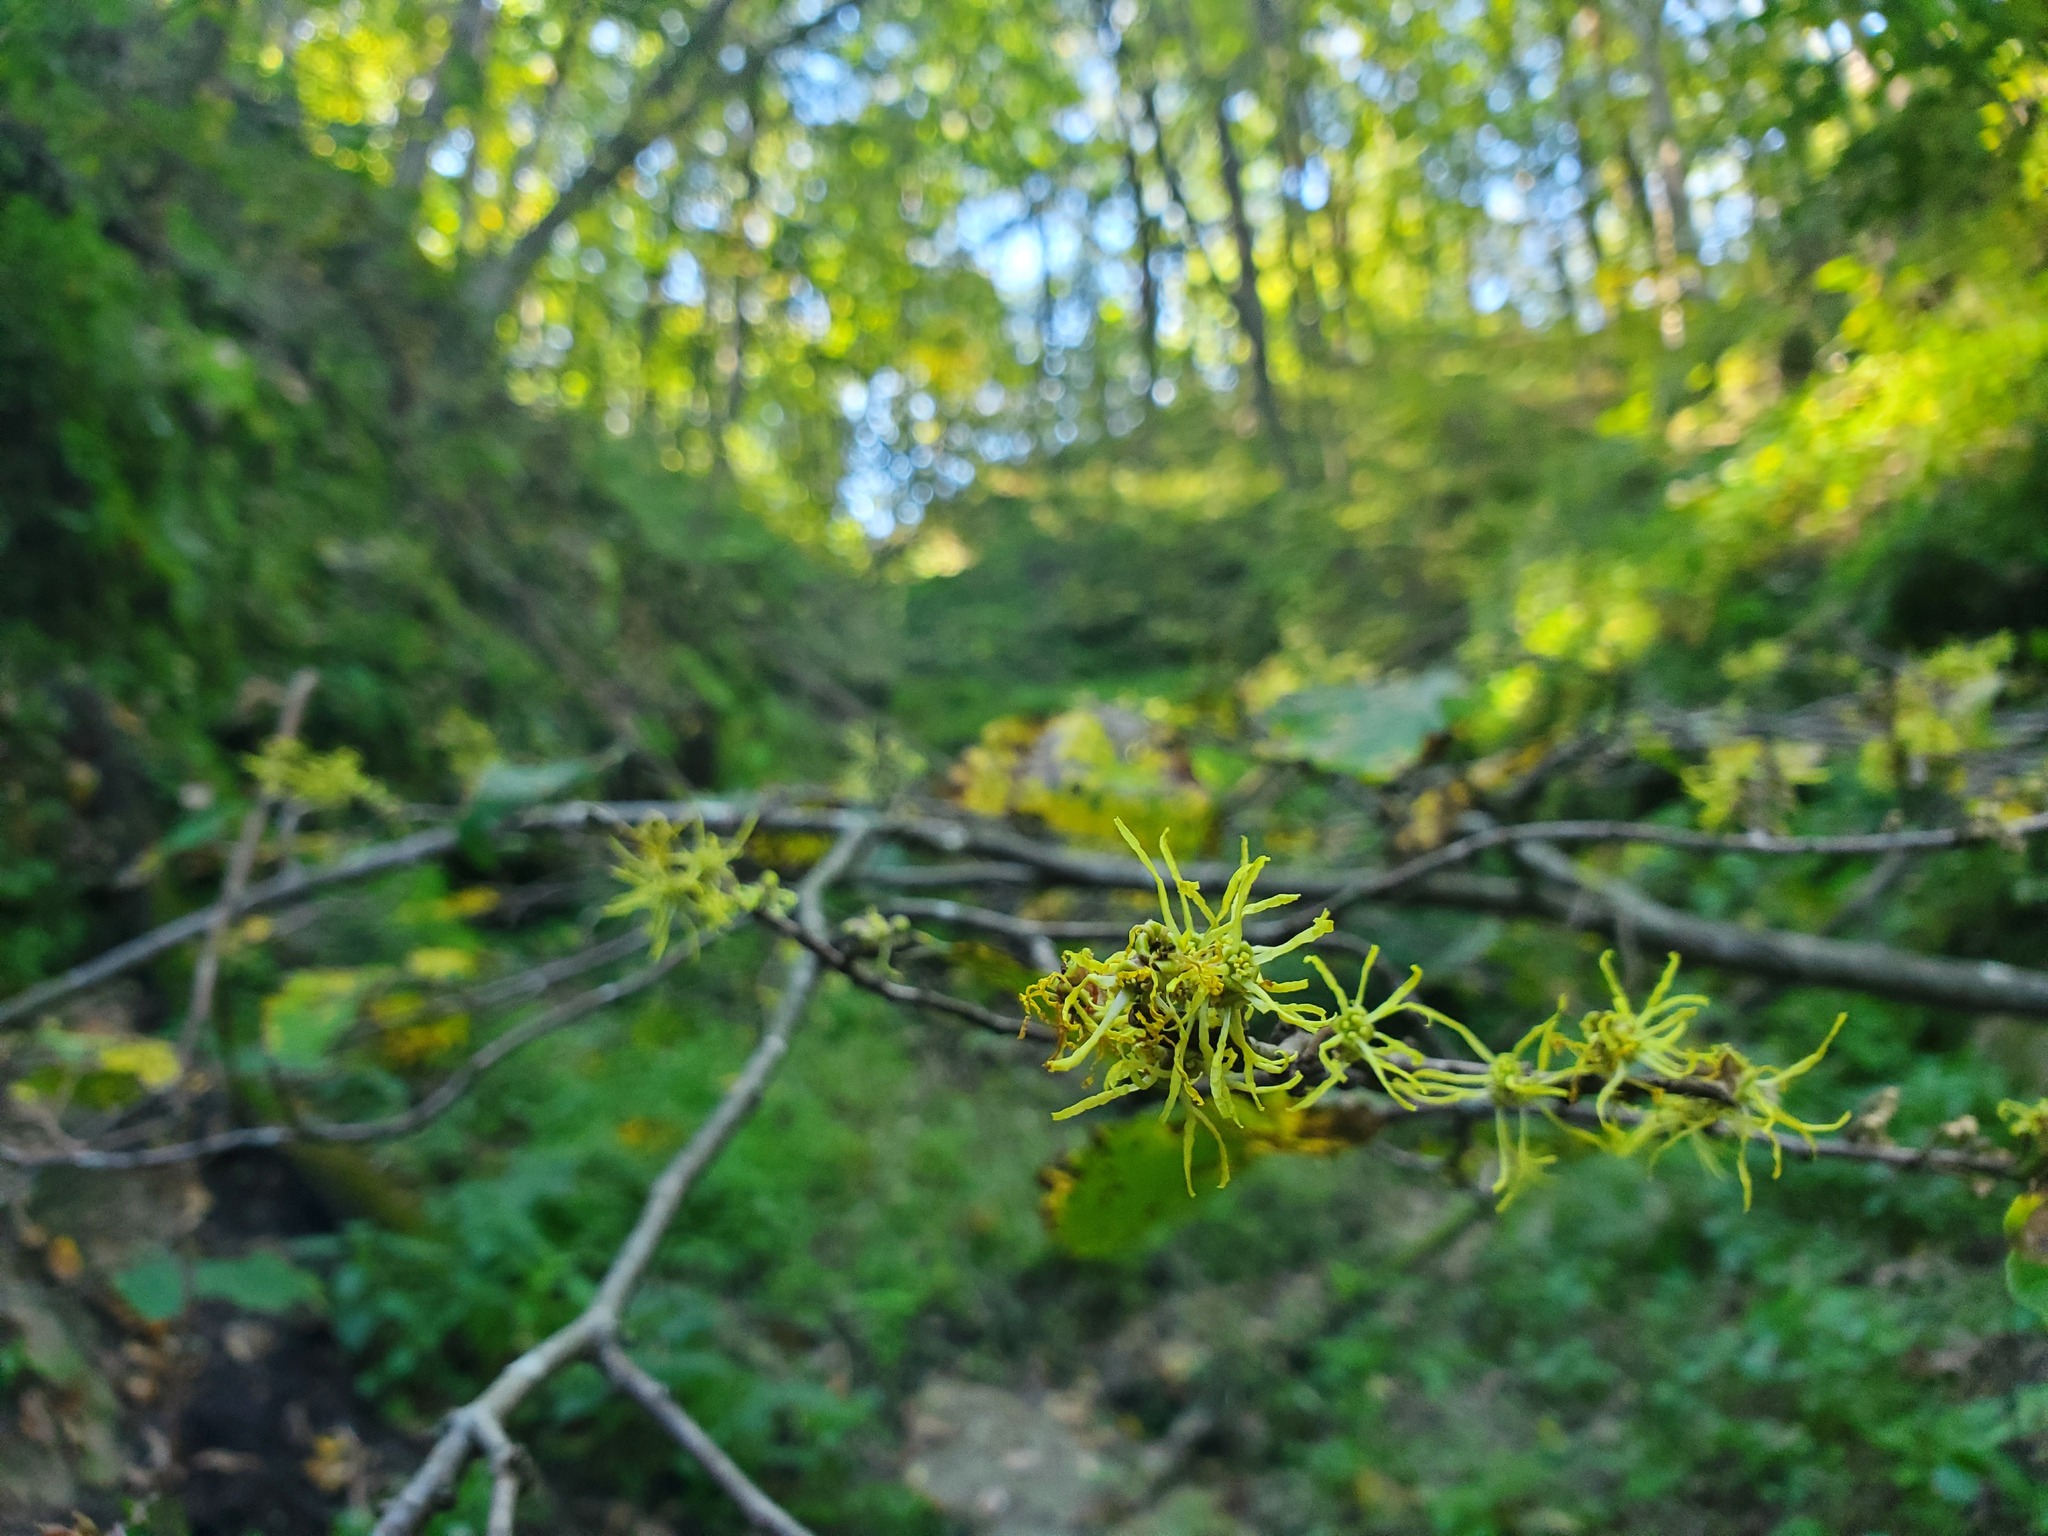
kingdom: Plantae
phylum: Tracheophyta
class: Magnoliopsida
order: Saxifragales
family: Hamamelidaceae
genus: Hamamelis
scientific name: Hamamelis virginiana
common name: Witch-hazel
